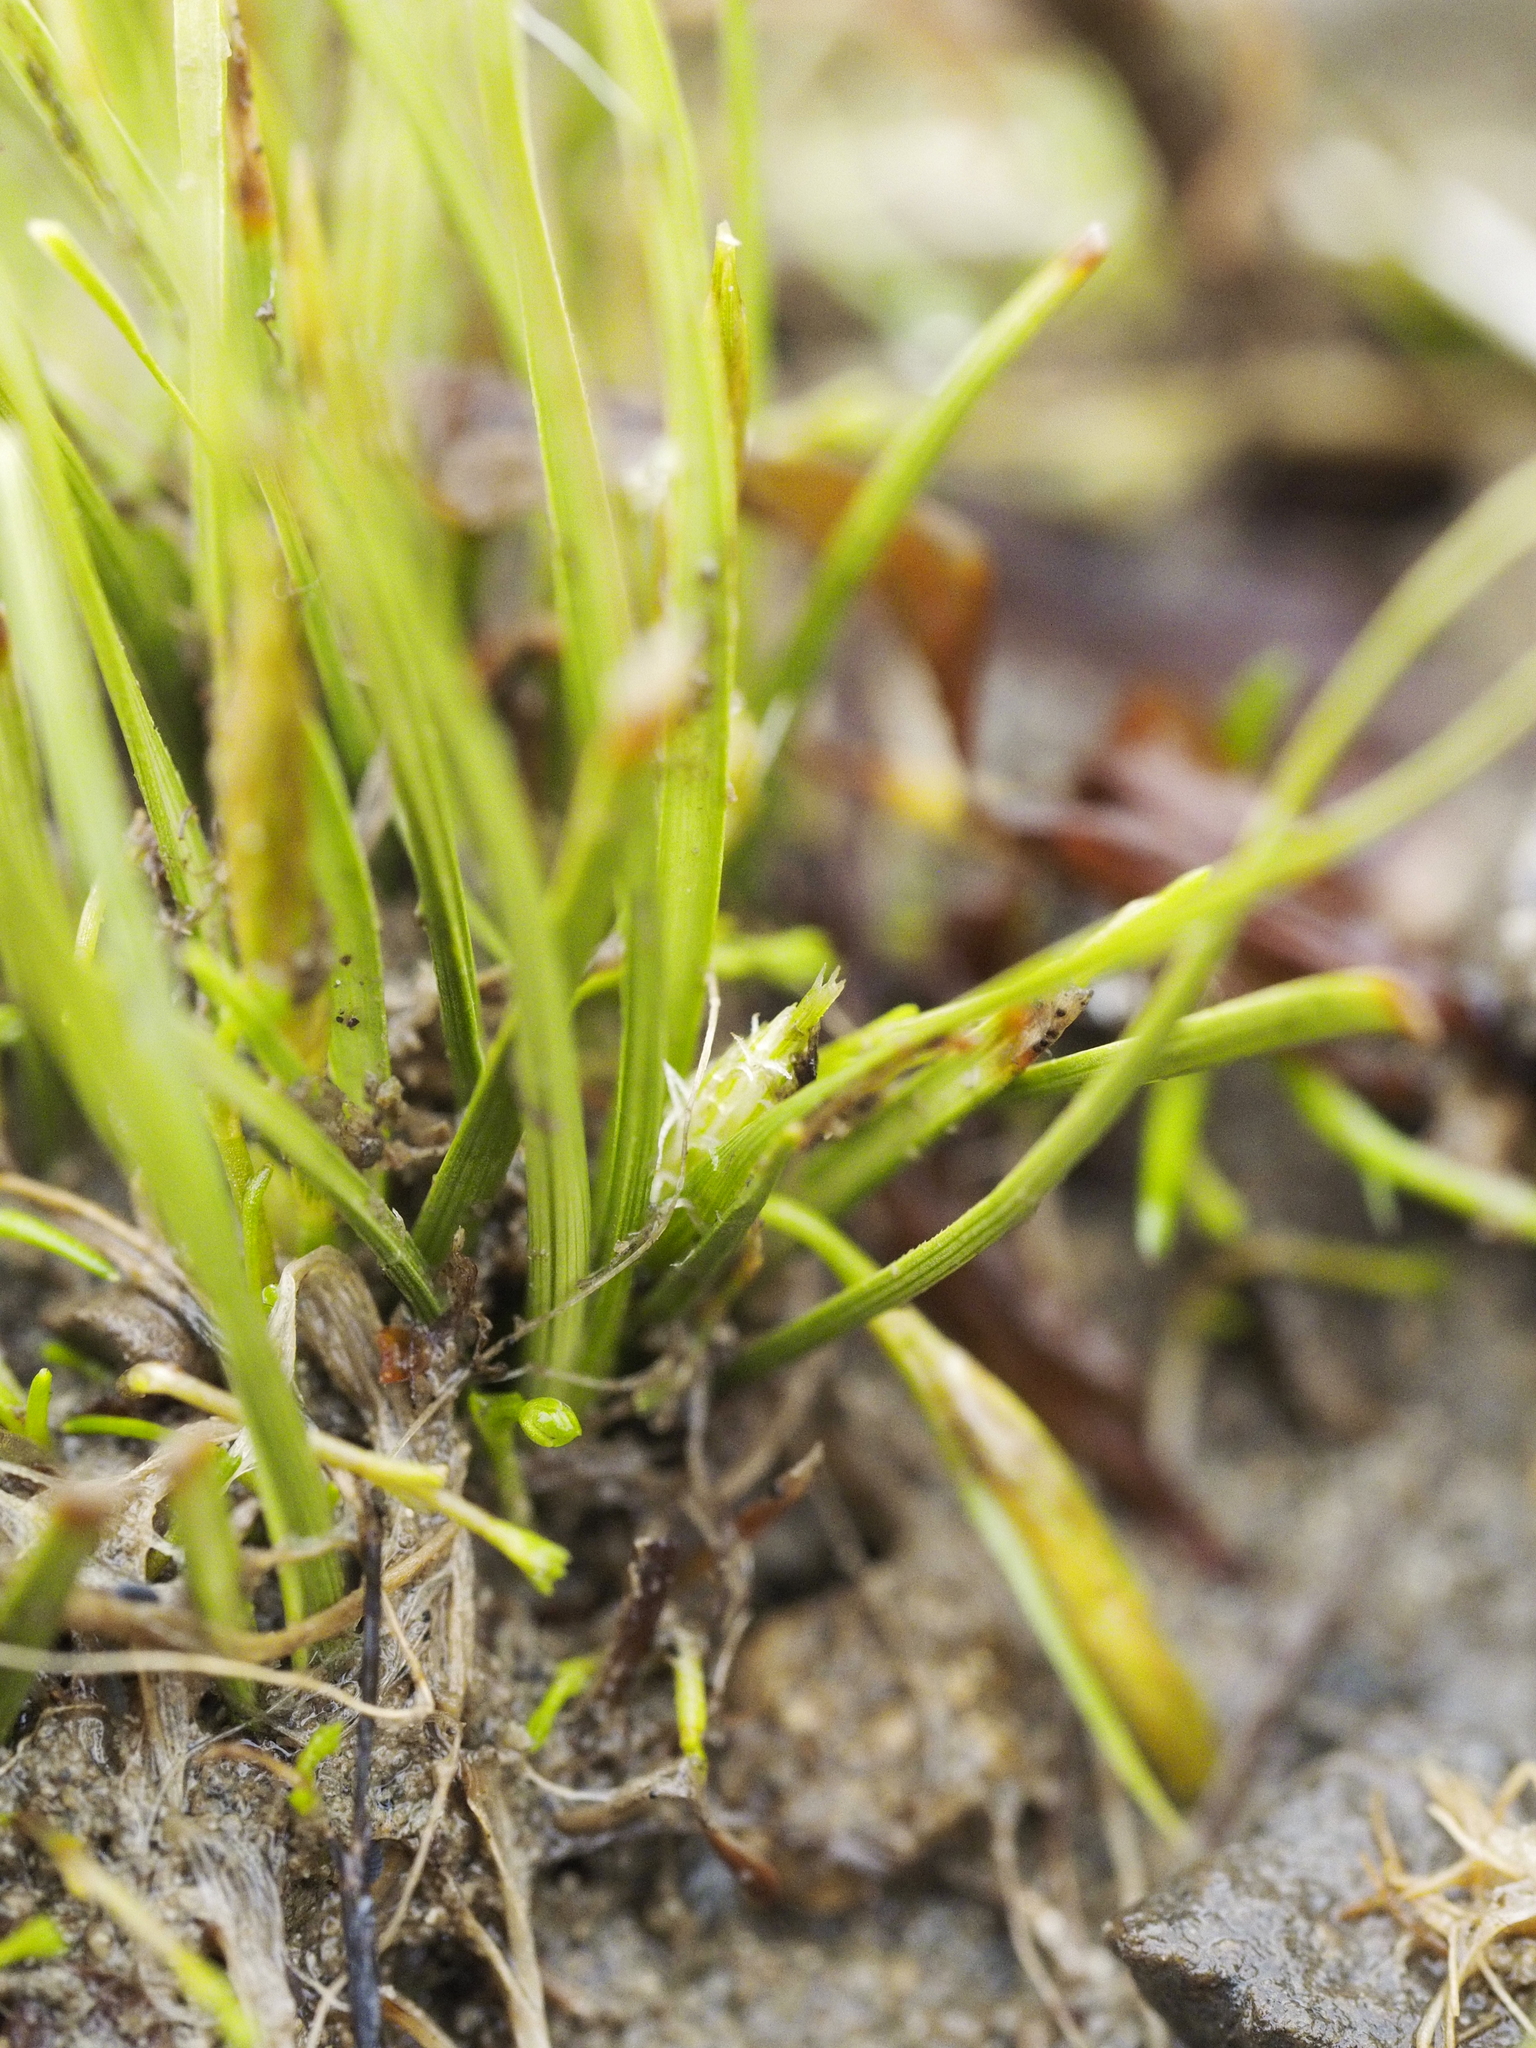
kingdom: Plantae
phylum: Tracheophyta
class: Liliopsida
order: Poales
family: Cyperaceae
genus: Carex
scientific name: Carex cirrhosa
